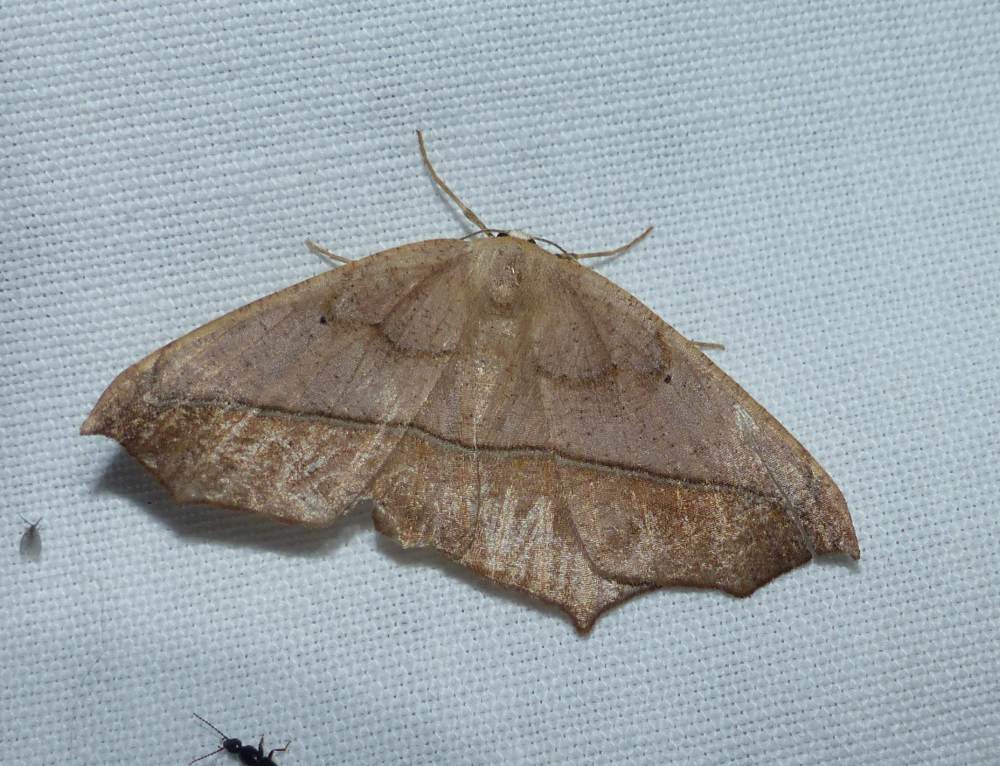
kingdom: Animalia
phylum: Arthropoda
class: Insecta
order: Lepidoptera
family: Geometridae
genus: Prochoerodes
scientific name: Prochoerodes lineola
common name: Large maple spanworm
